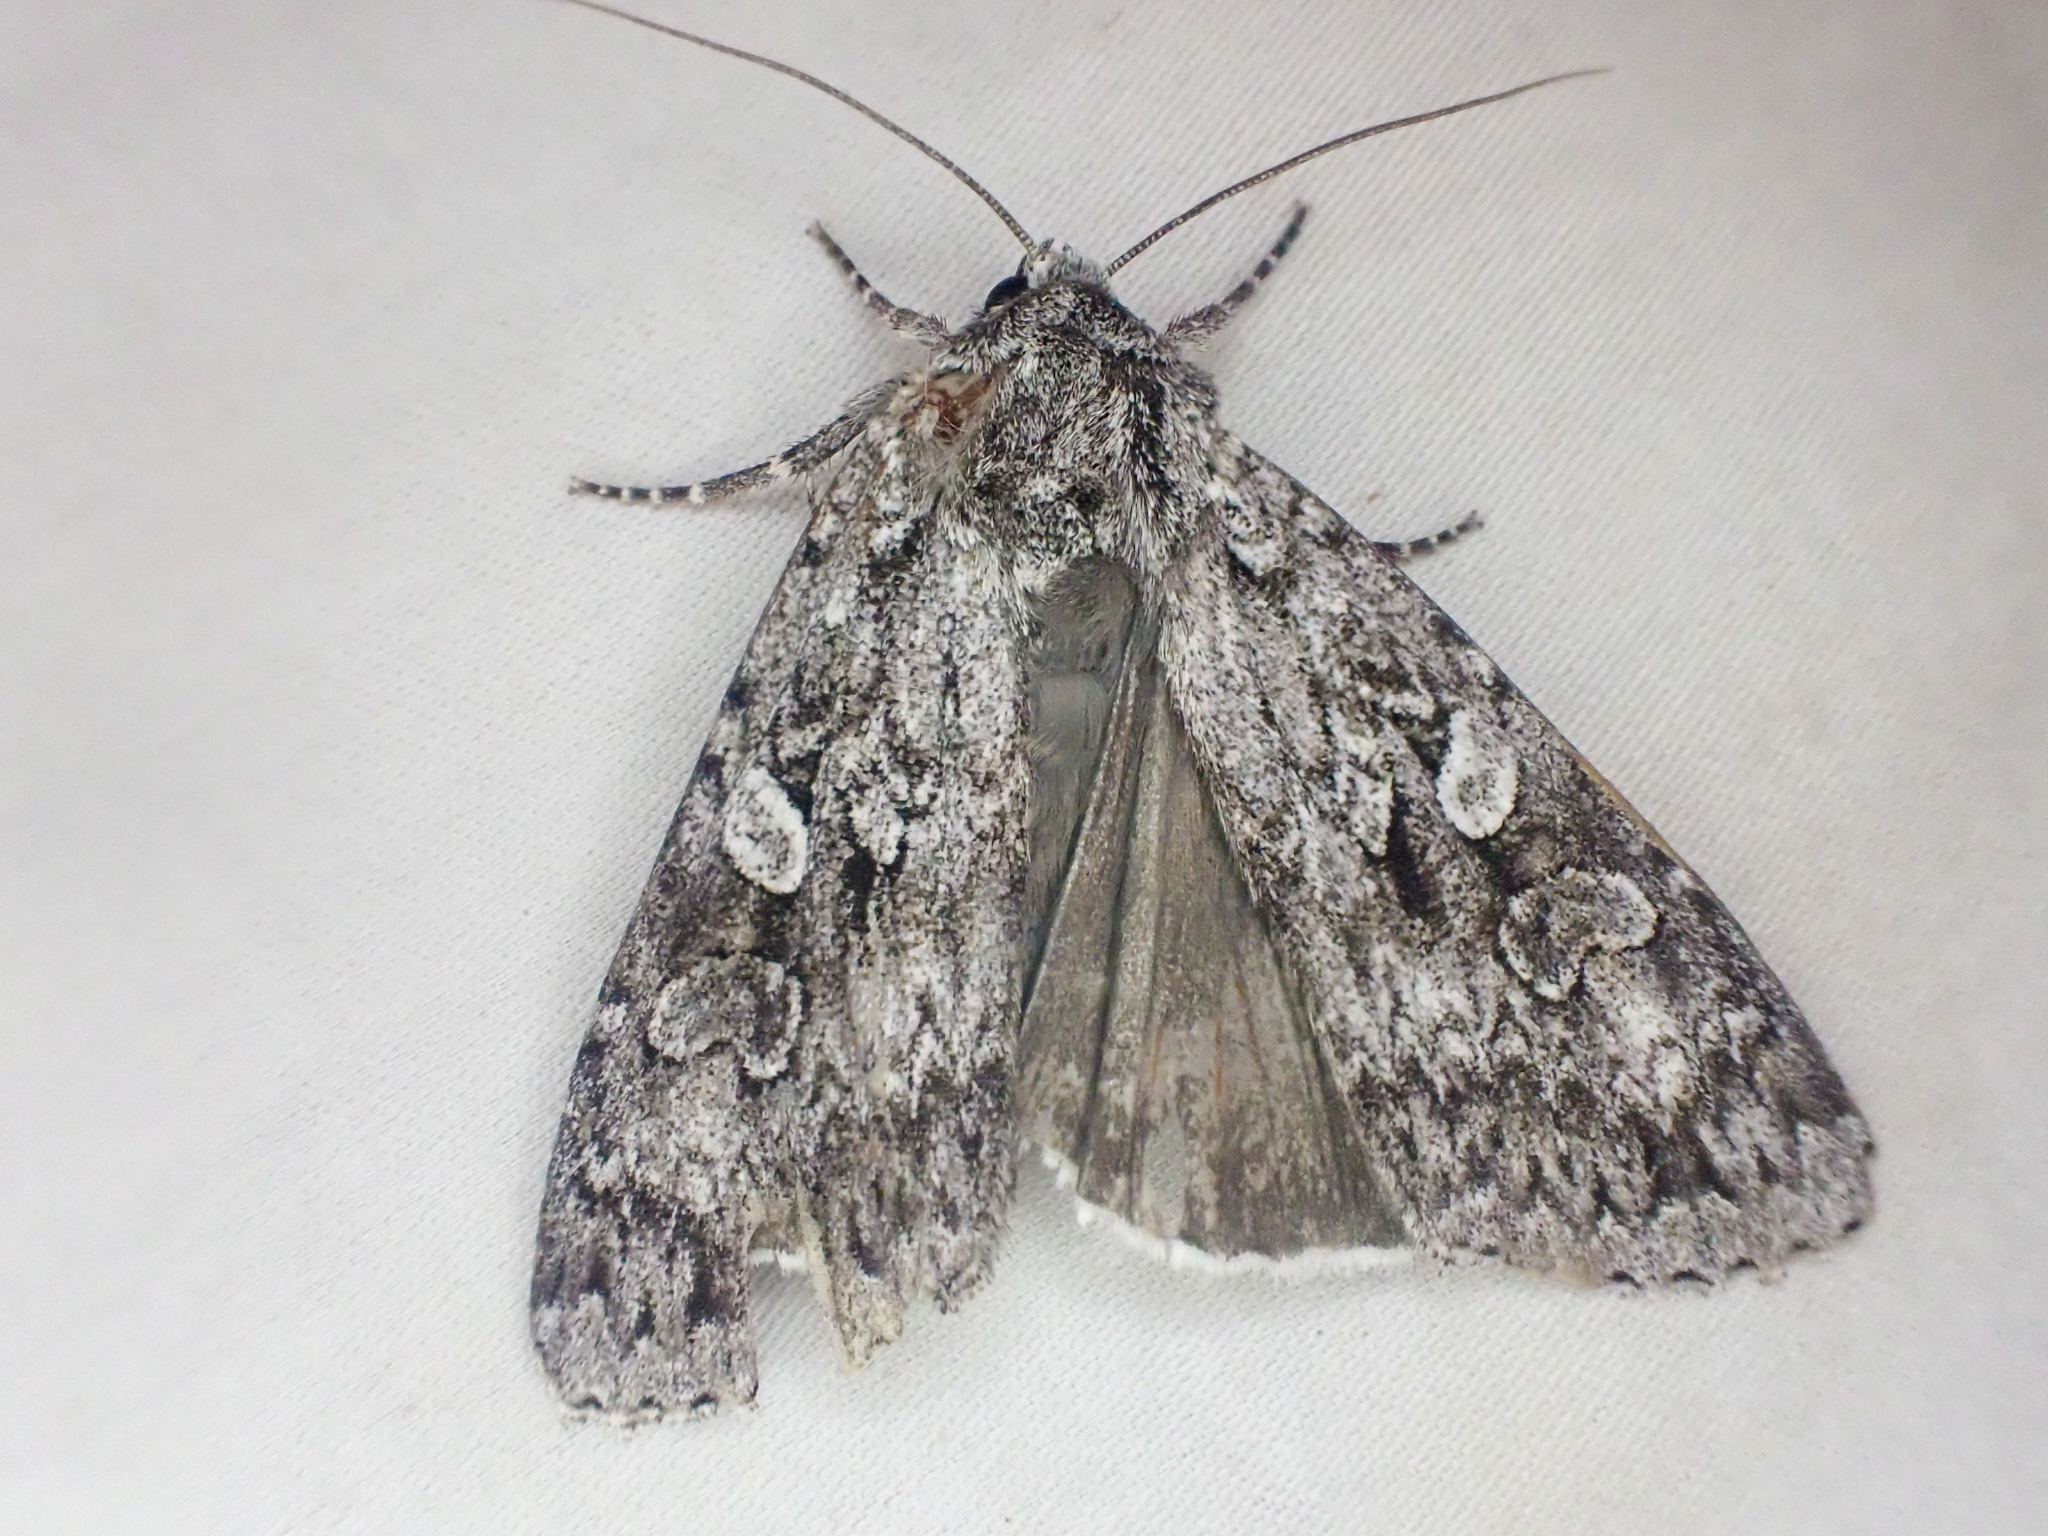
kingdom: Animalia
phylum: Arthropoda
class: Insecta
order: Lepidoptera
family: Noctuidae
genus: Eurois
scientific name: Eurois occulta
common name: Great brocade
